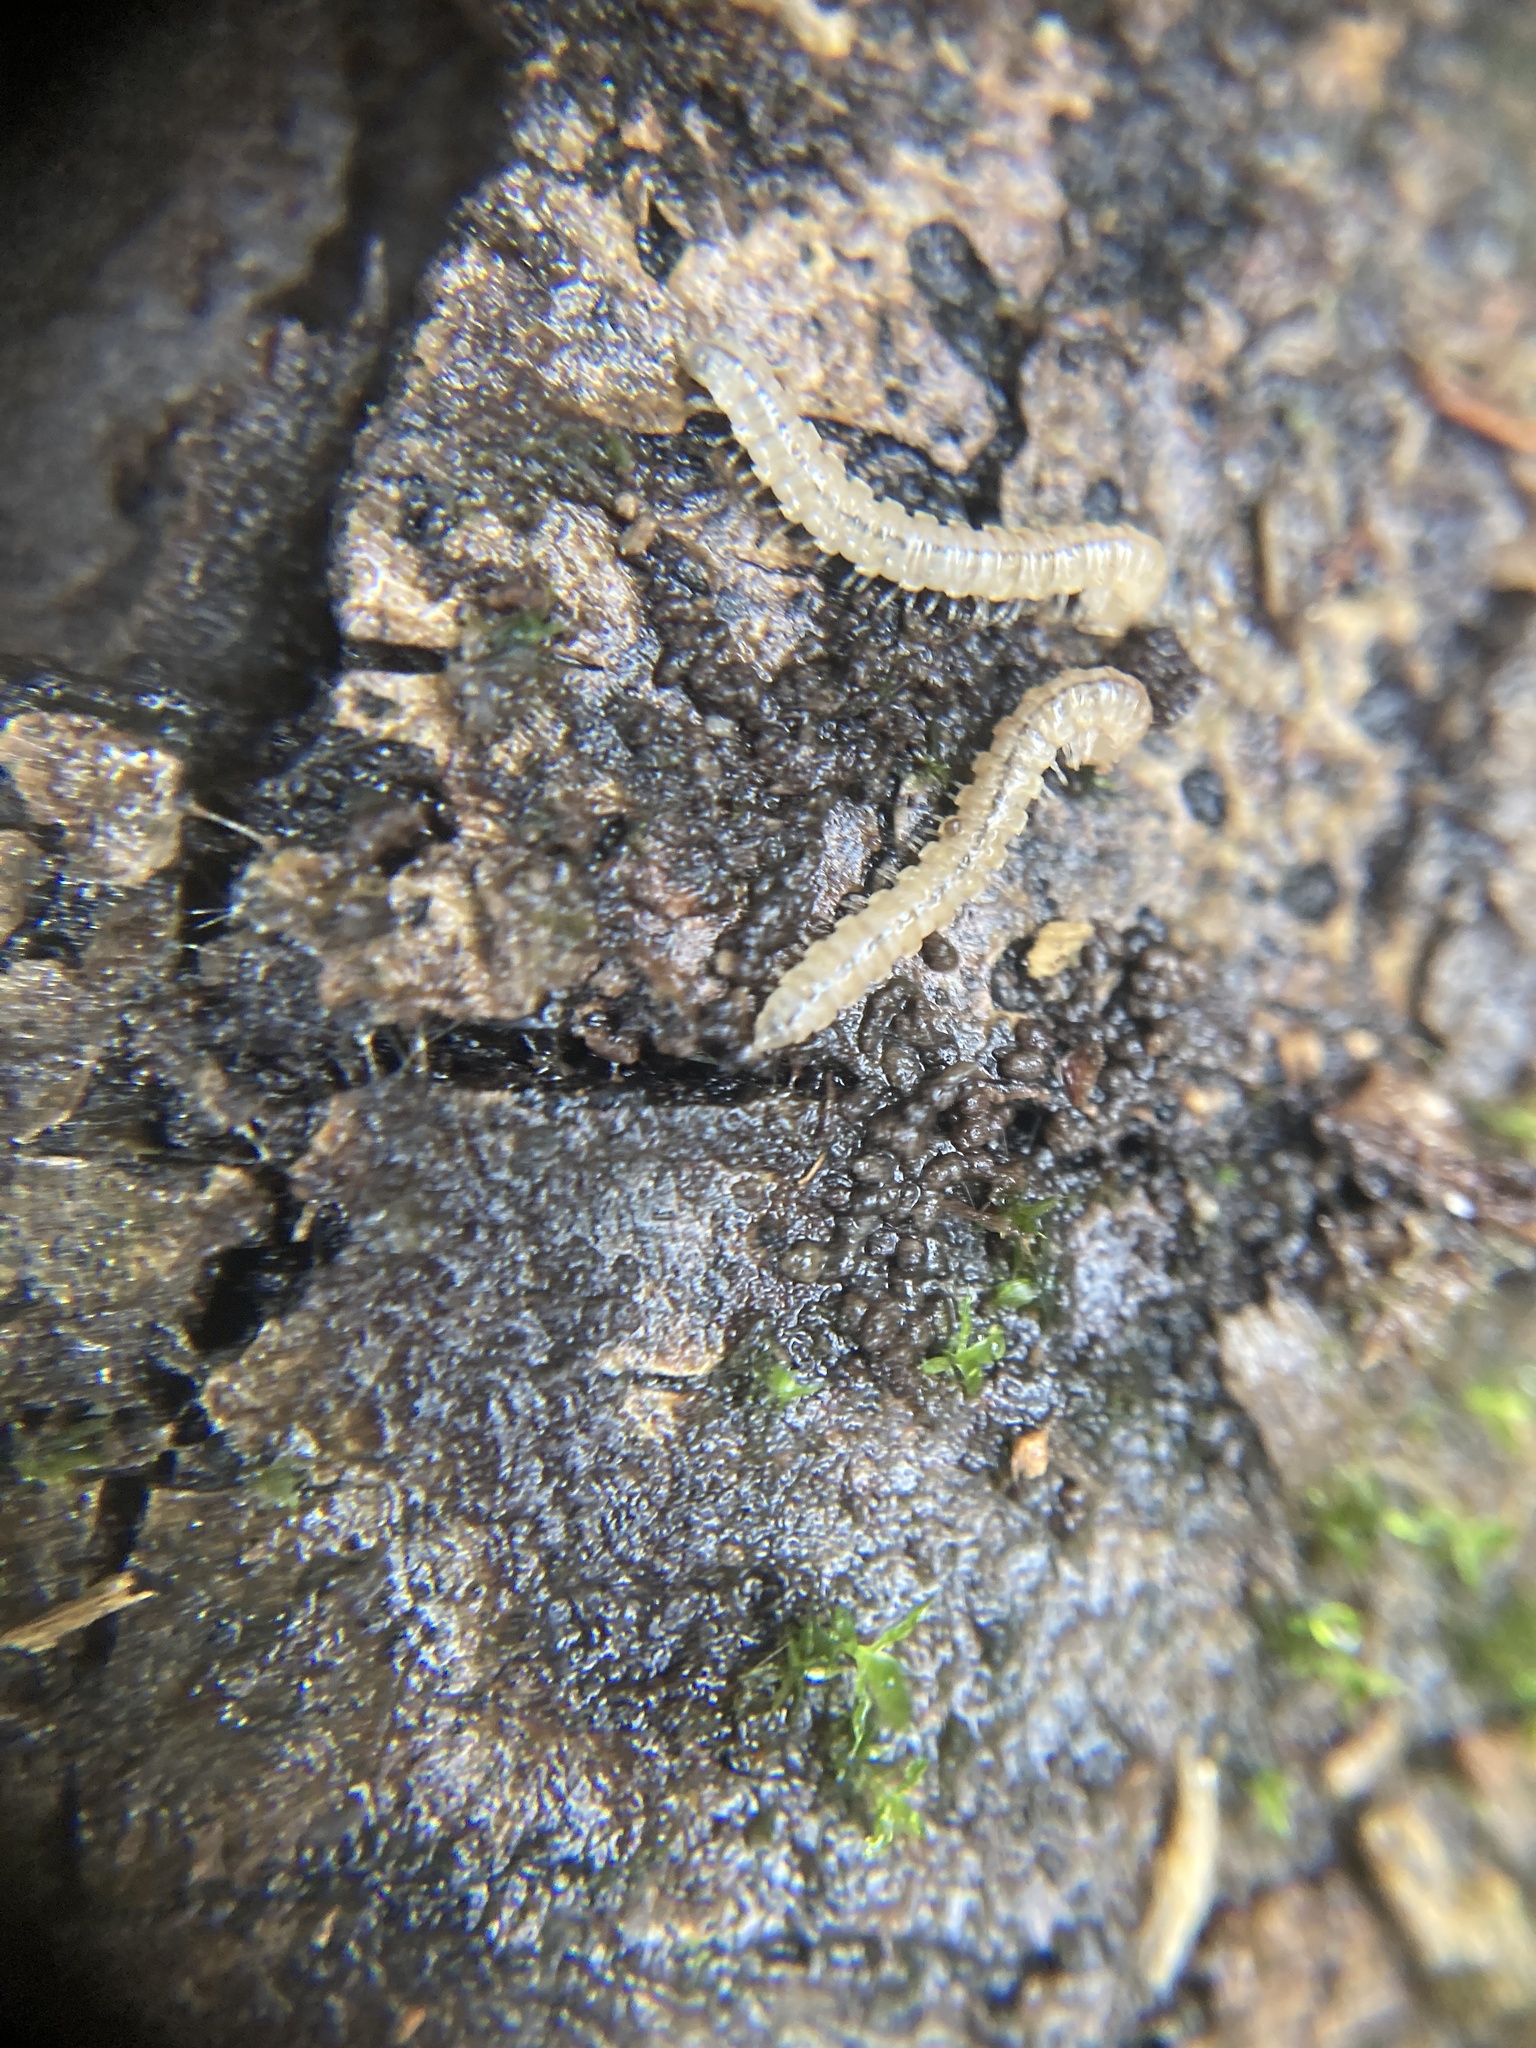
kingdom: Animalia
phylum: Arthropoda
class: Diplopoda
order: Polydesmida
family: Paradoxosomatidae
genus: Oxidus
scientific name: Oxidus gracilis
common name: Greenhouse millipede
